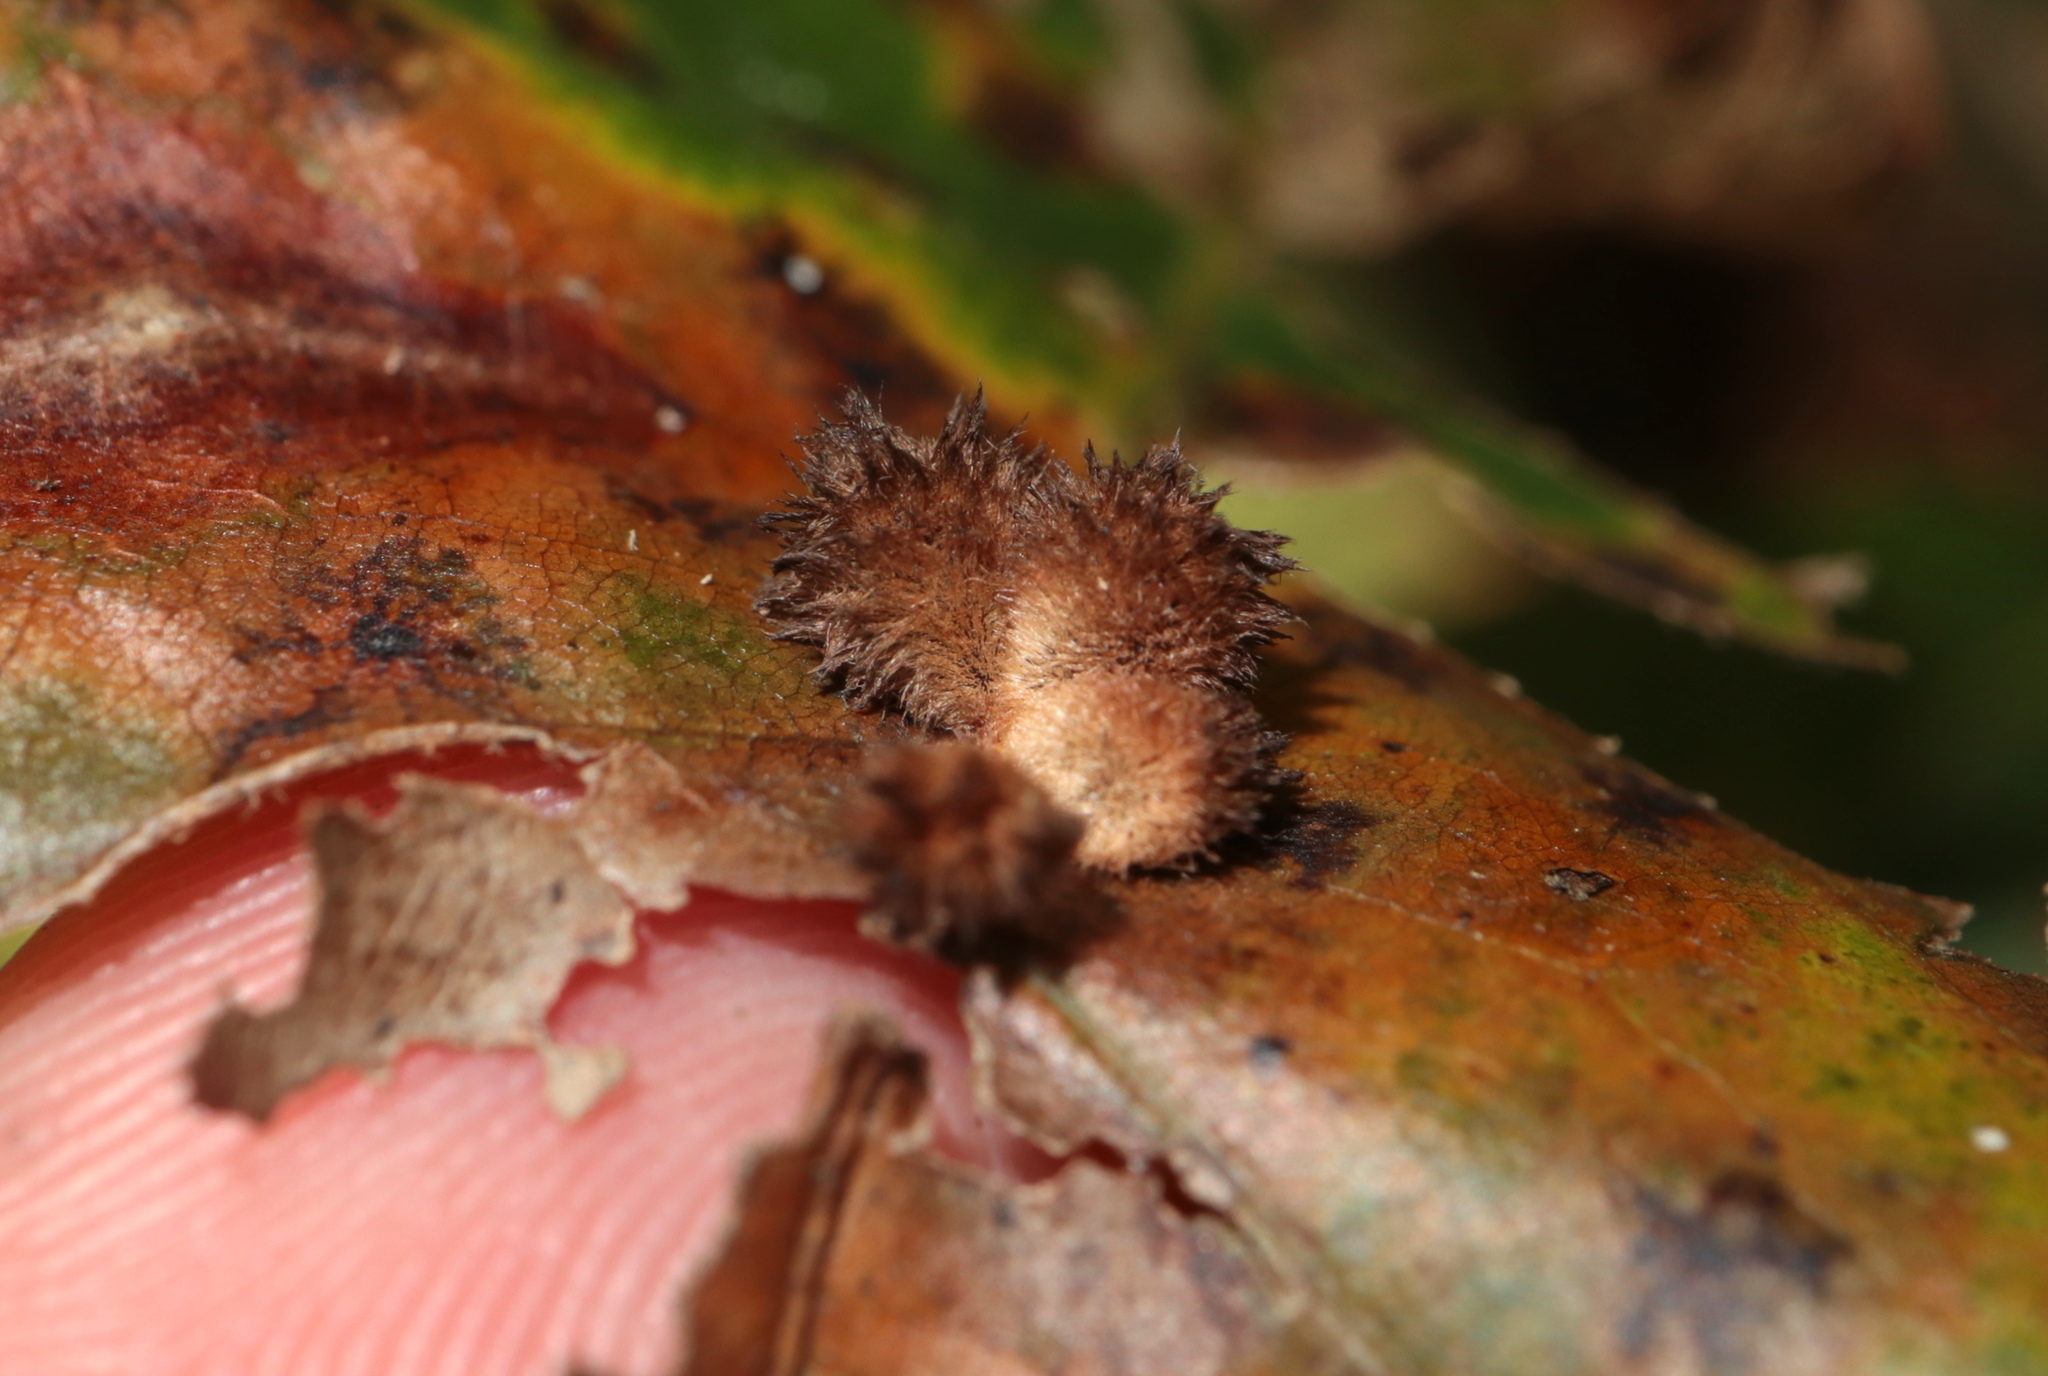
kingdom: Animalia
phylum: Arthropoda
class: Insecta
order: Hymenoptera
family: Cynipidae
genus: Callirhytis
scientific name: Callirhytis
